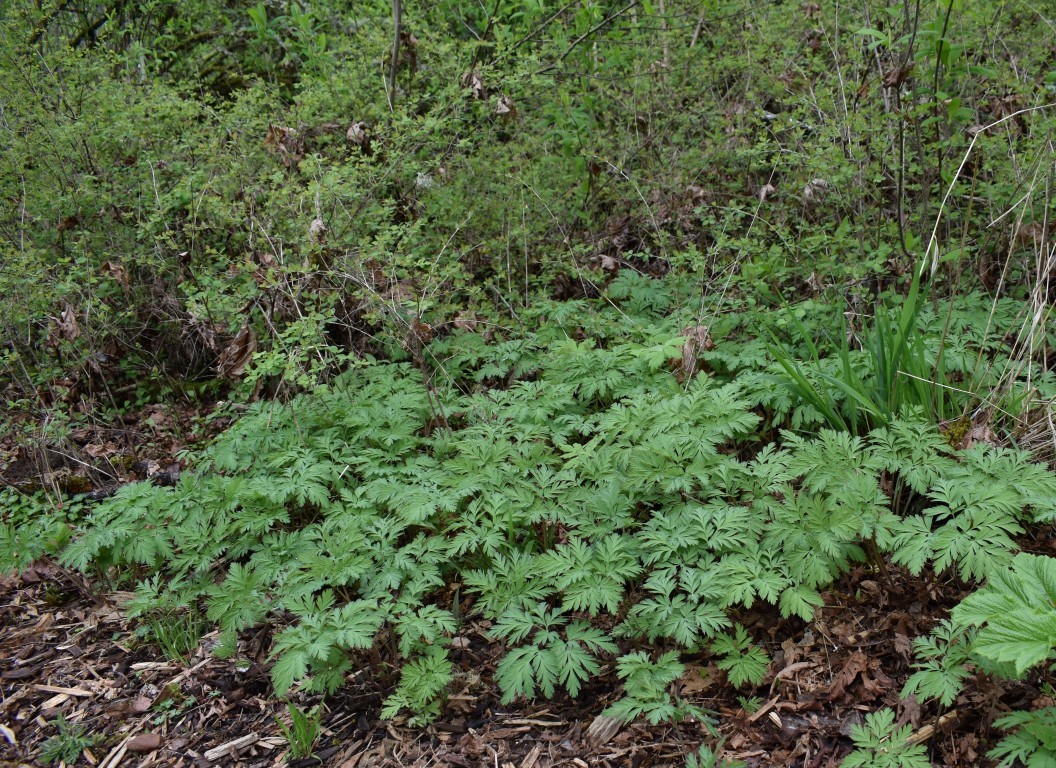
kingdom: Plantae
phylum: Tracheophyta
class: Magnoliopsida
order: Ranunculales
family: Papaveraceae
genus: Dicentra
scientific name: Dicentra formosa
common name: Bleeding-heart
